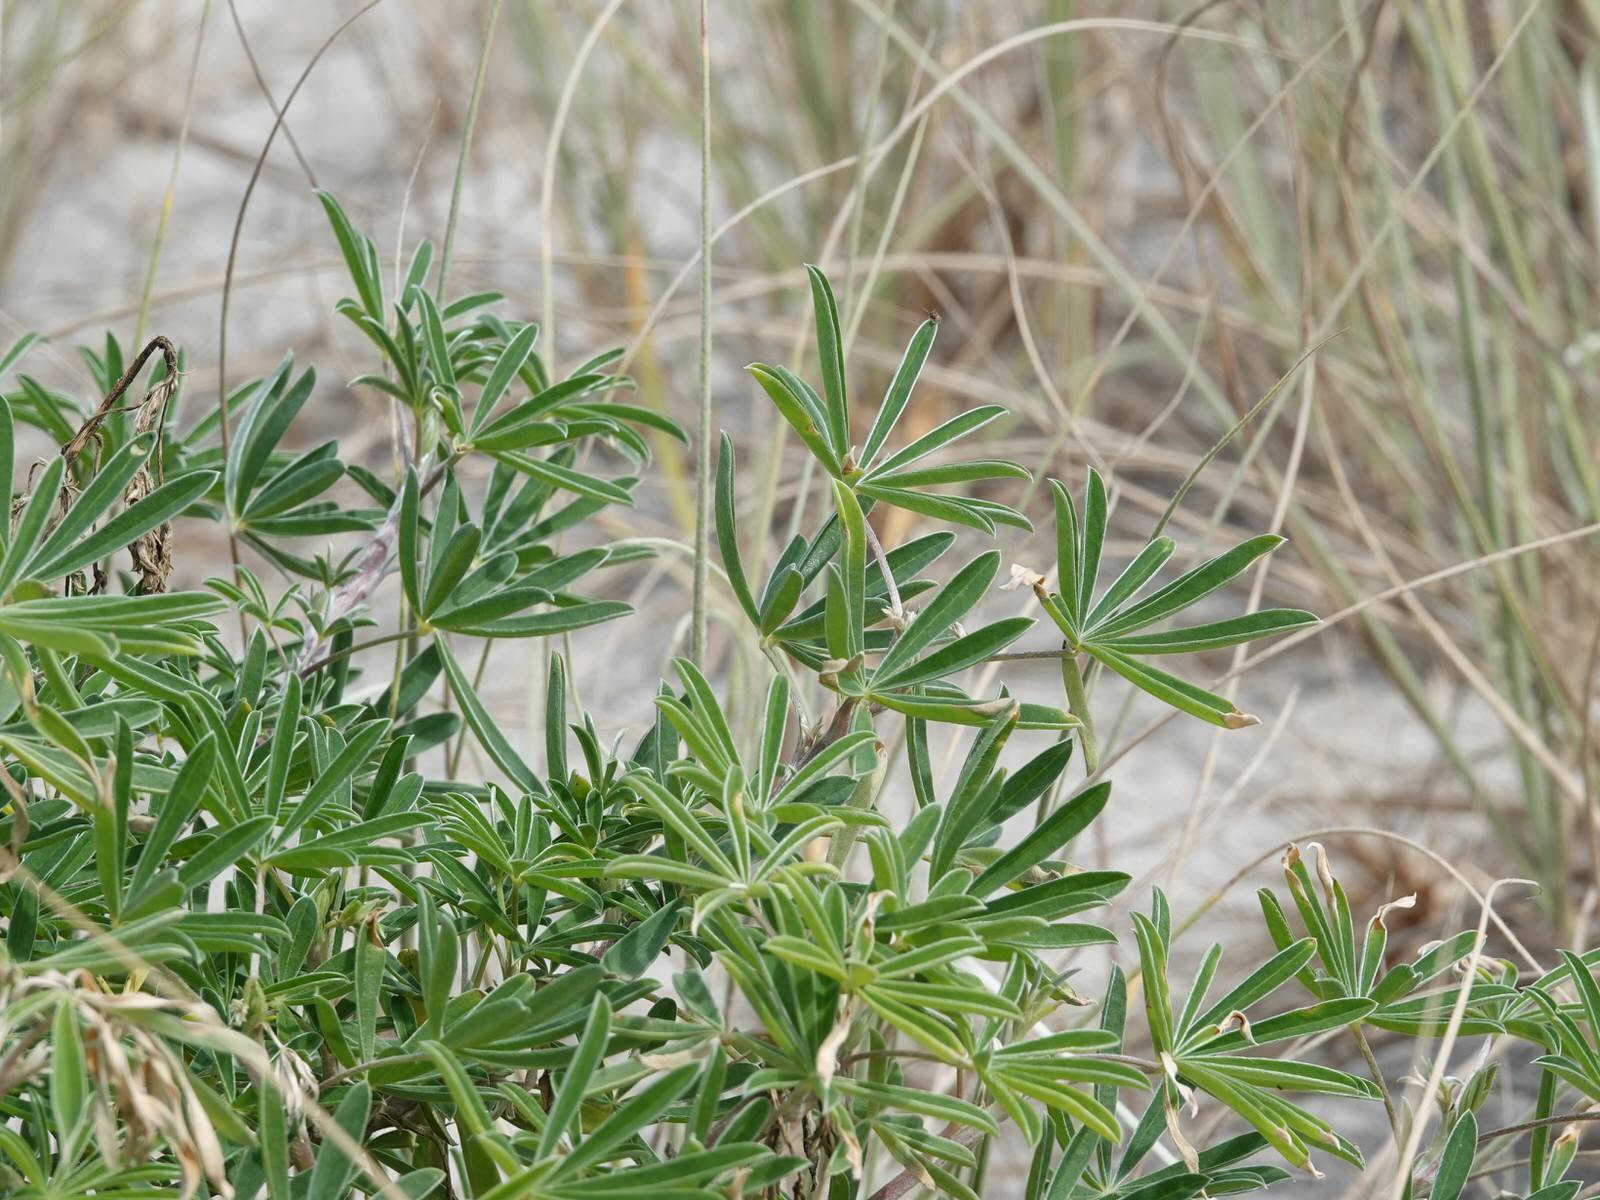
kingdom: Plantae
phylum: Tracheophyta
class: Magnoliopsida
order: Fabales
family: Fabaceae
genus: Lupinus
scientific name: Lupinus arboreus
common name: Yellow bush lupine
